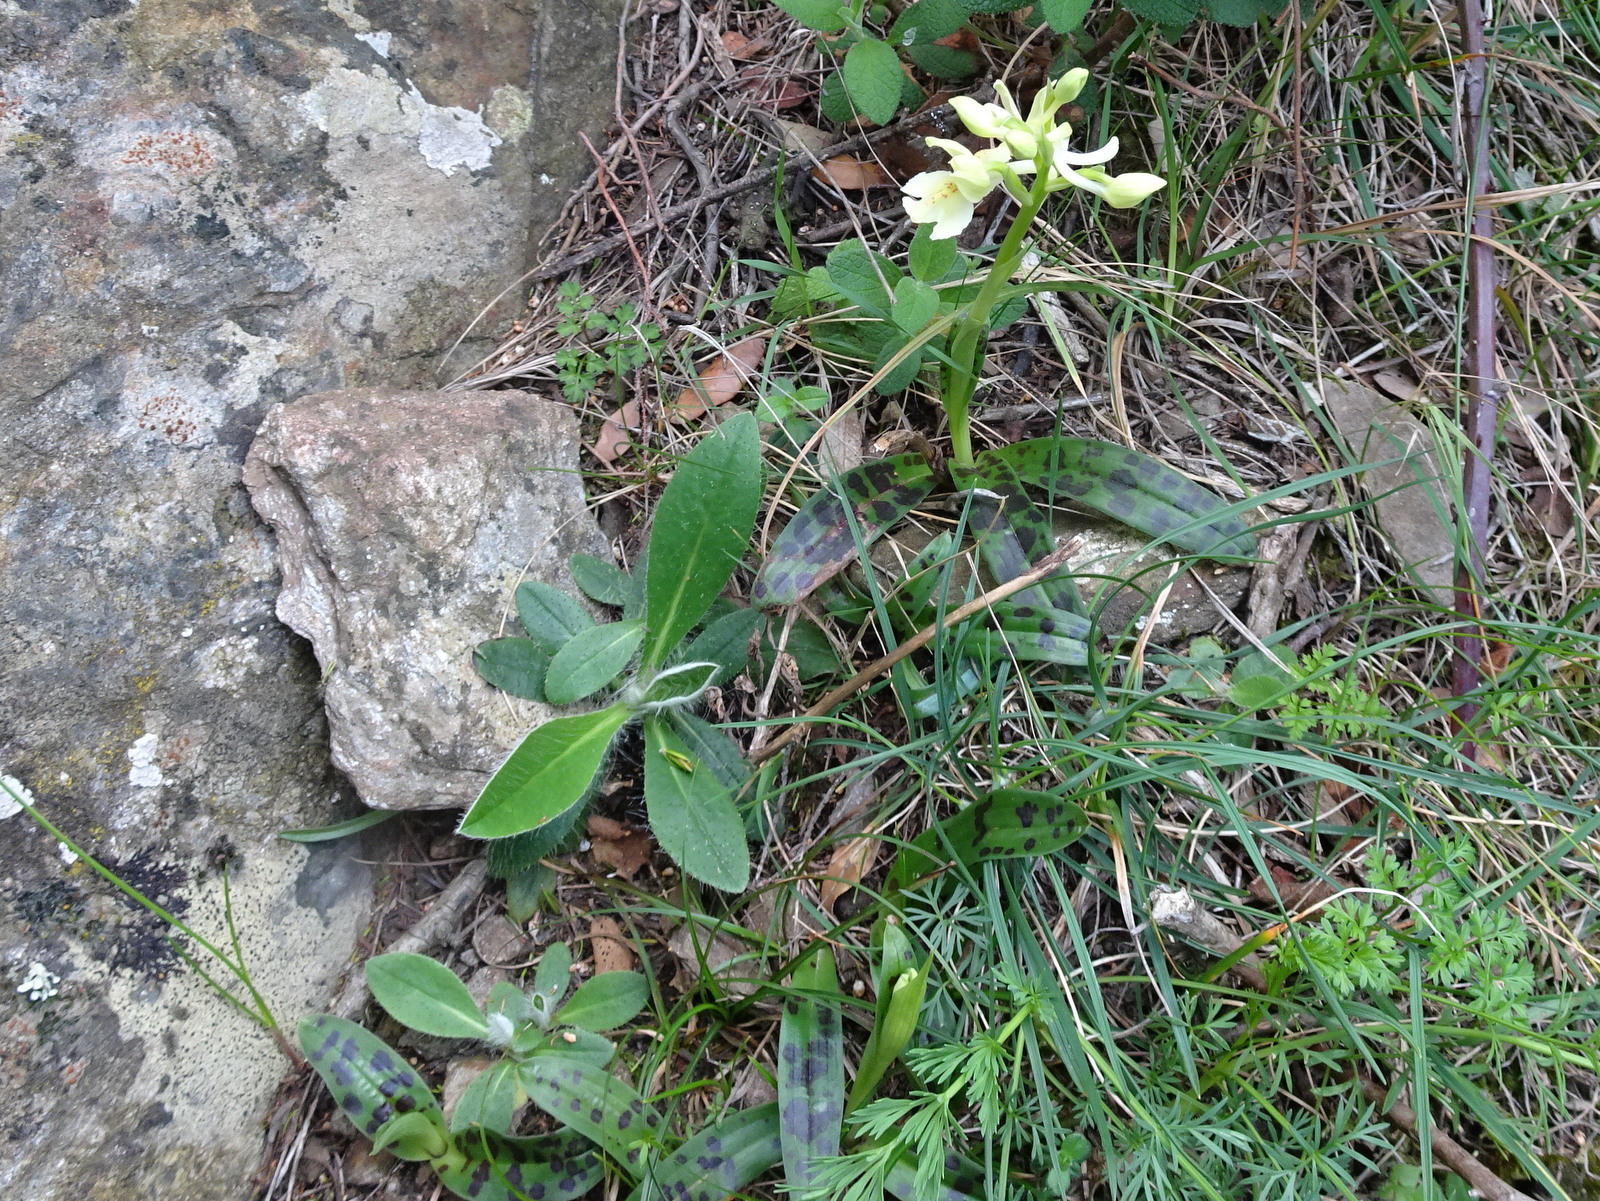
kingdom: Plantae
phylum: Tracheophyta
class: Liliopsida
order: Asparagales
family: Orchidaceae
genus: Orchis
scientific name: Orchis provincialis
